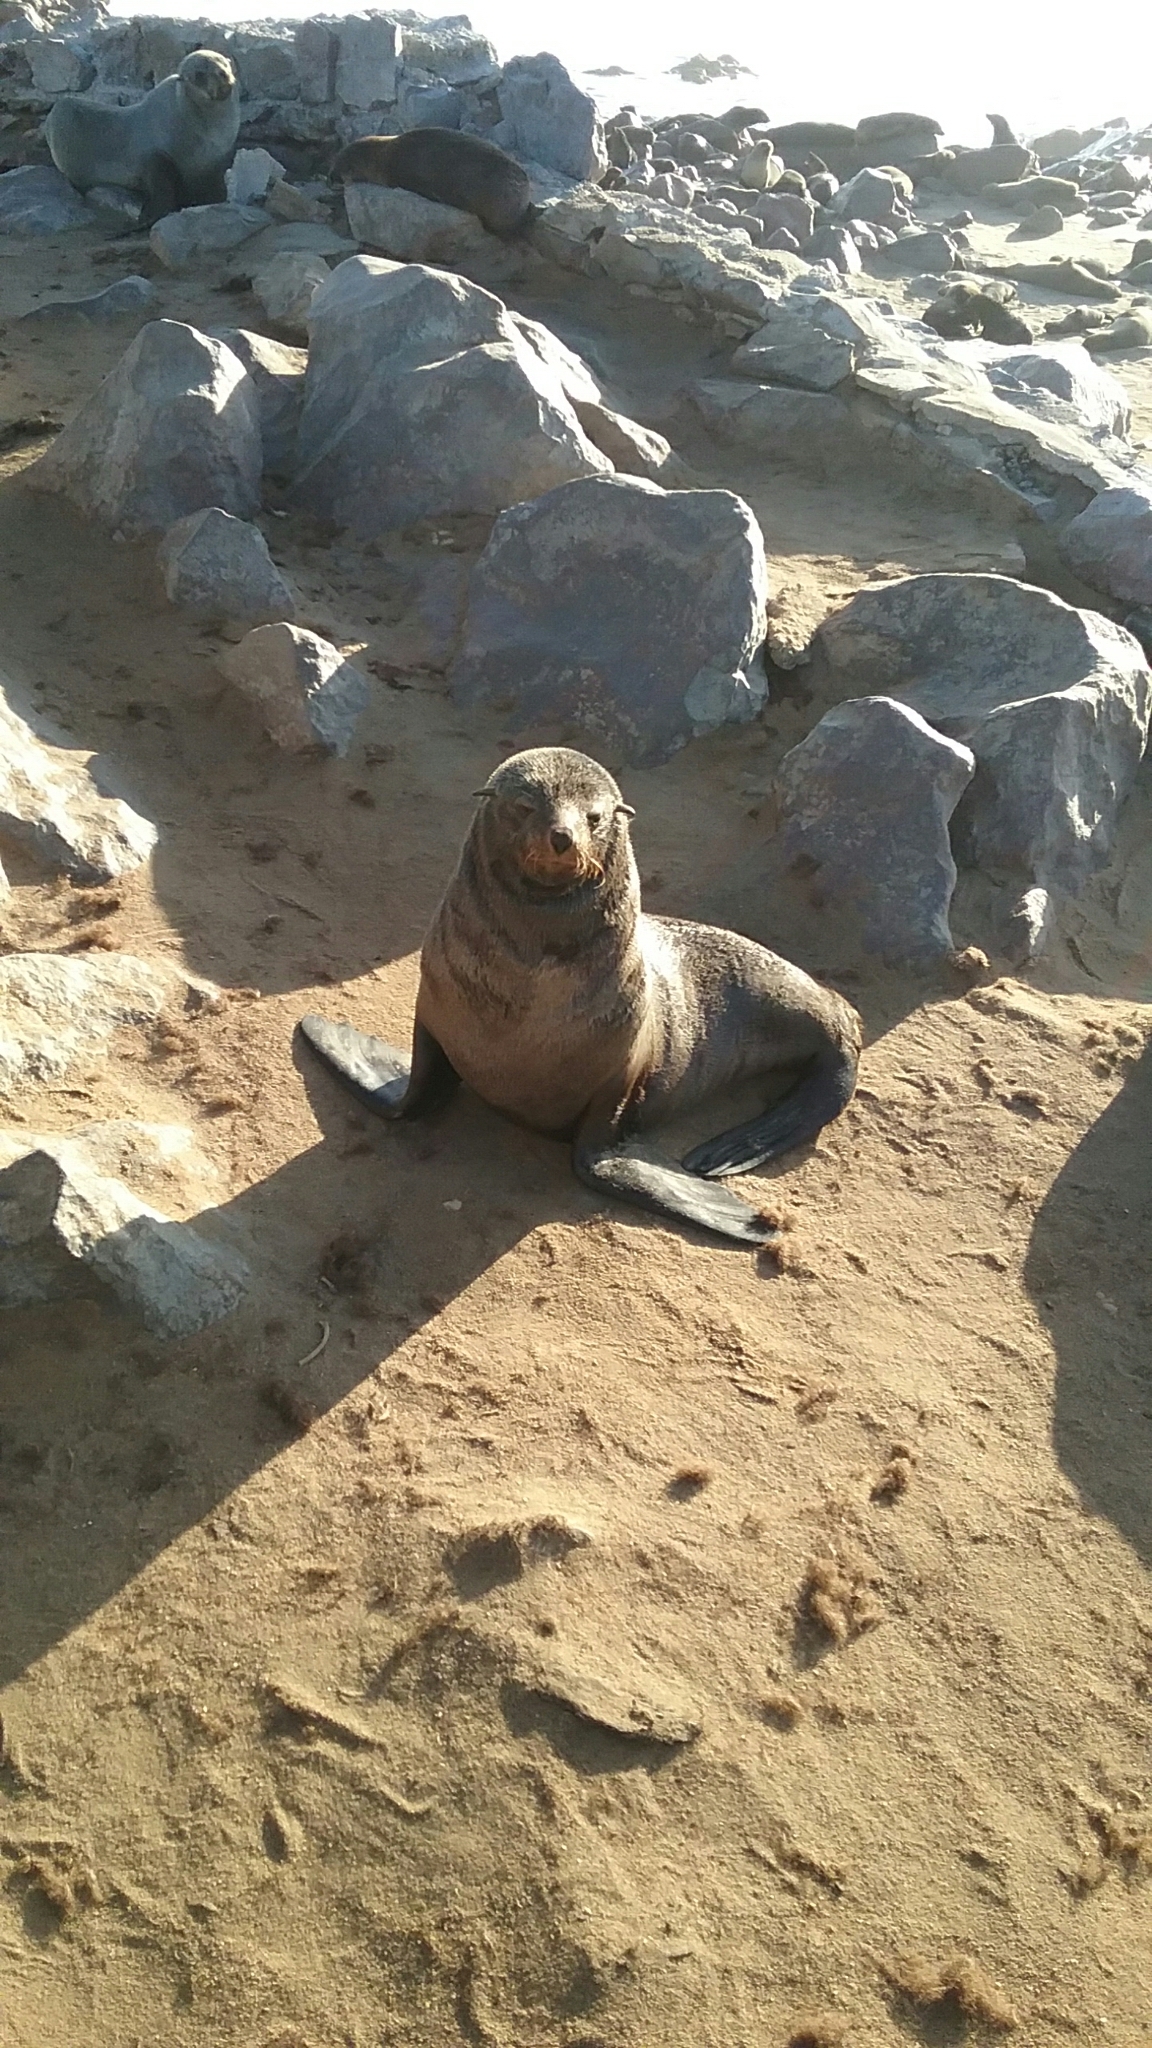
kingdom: Animalia
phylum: Chordata
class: Mammalia
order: Carnivora
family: Otariidae
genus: Arctocephalus
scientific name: Arctocephalus pusillus
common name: Brown fur seal
